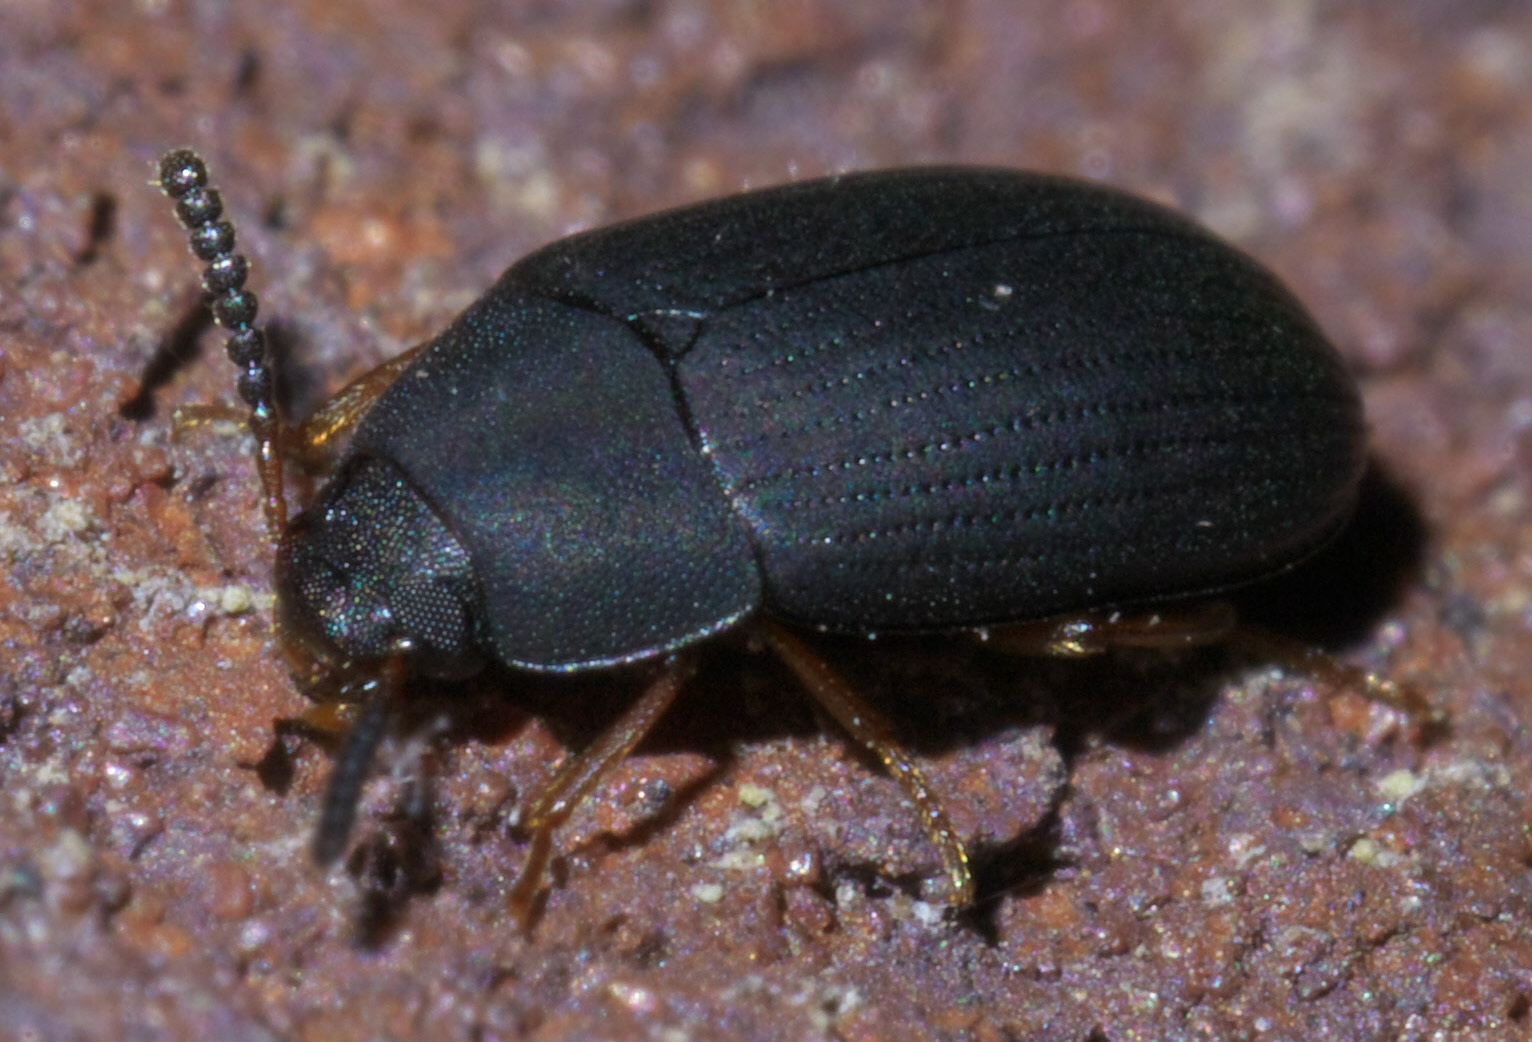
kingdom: Animalia
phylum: Arthropoda
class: Insecta
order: Coleoptera
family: Tenebrionidae
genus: Platydema
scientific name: Platydema flavipes
